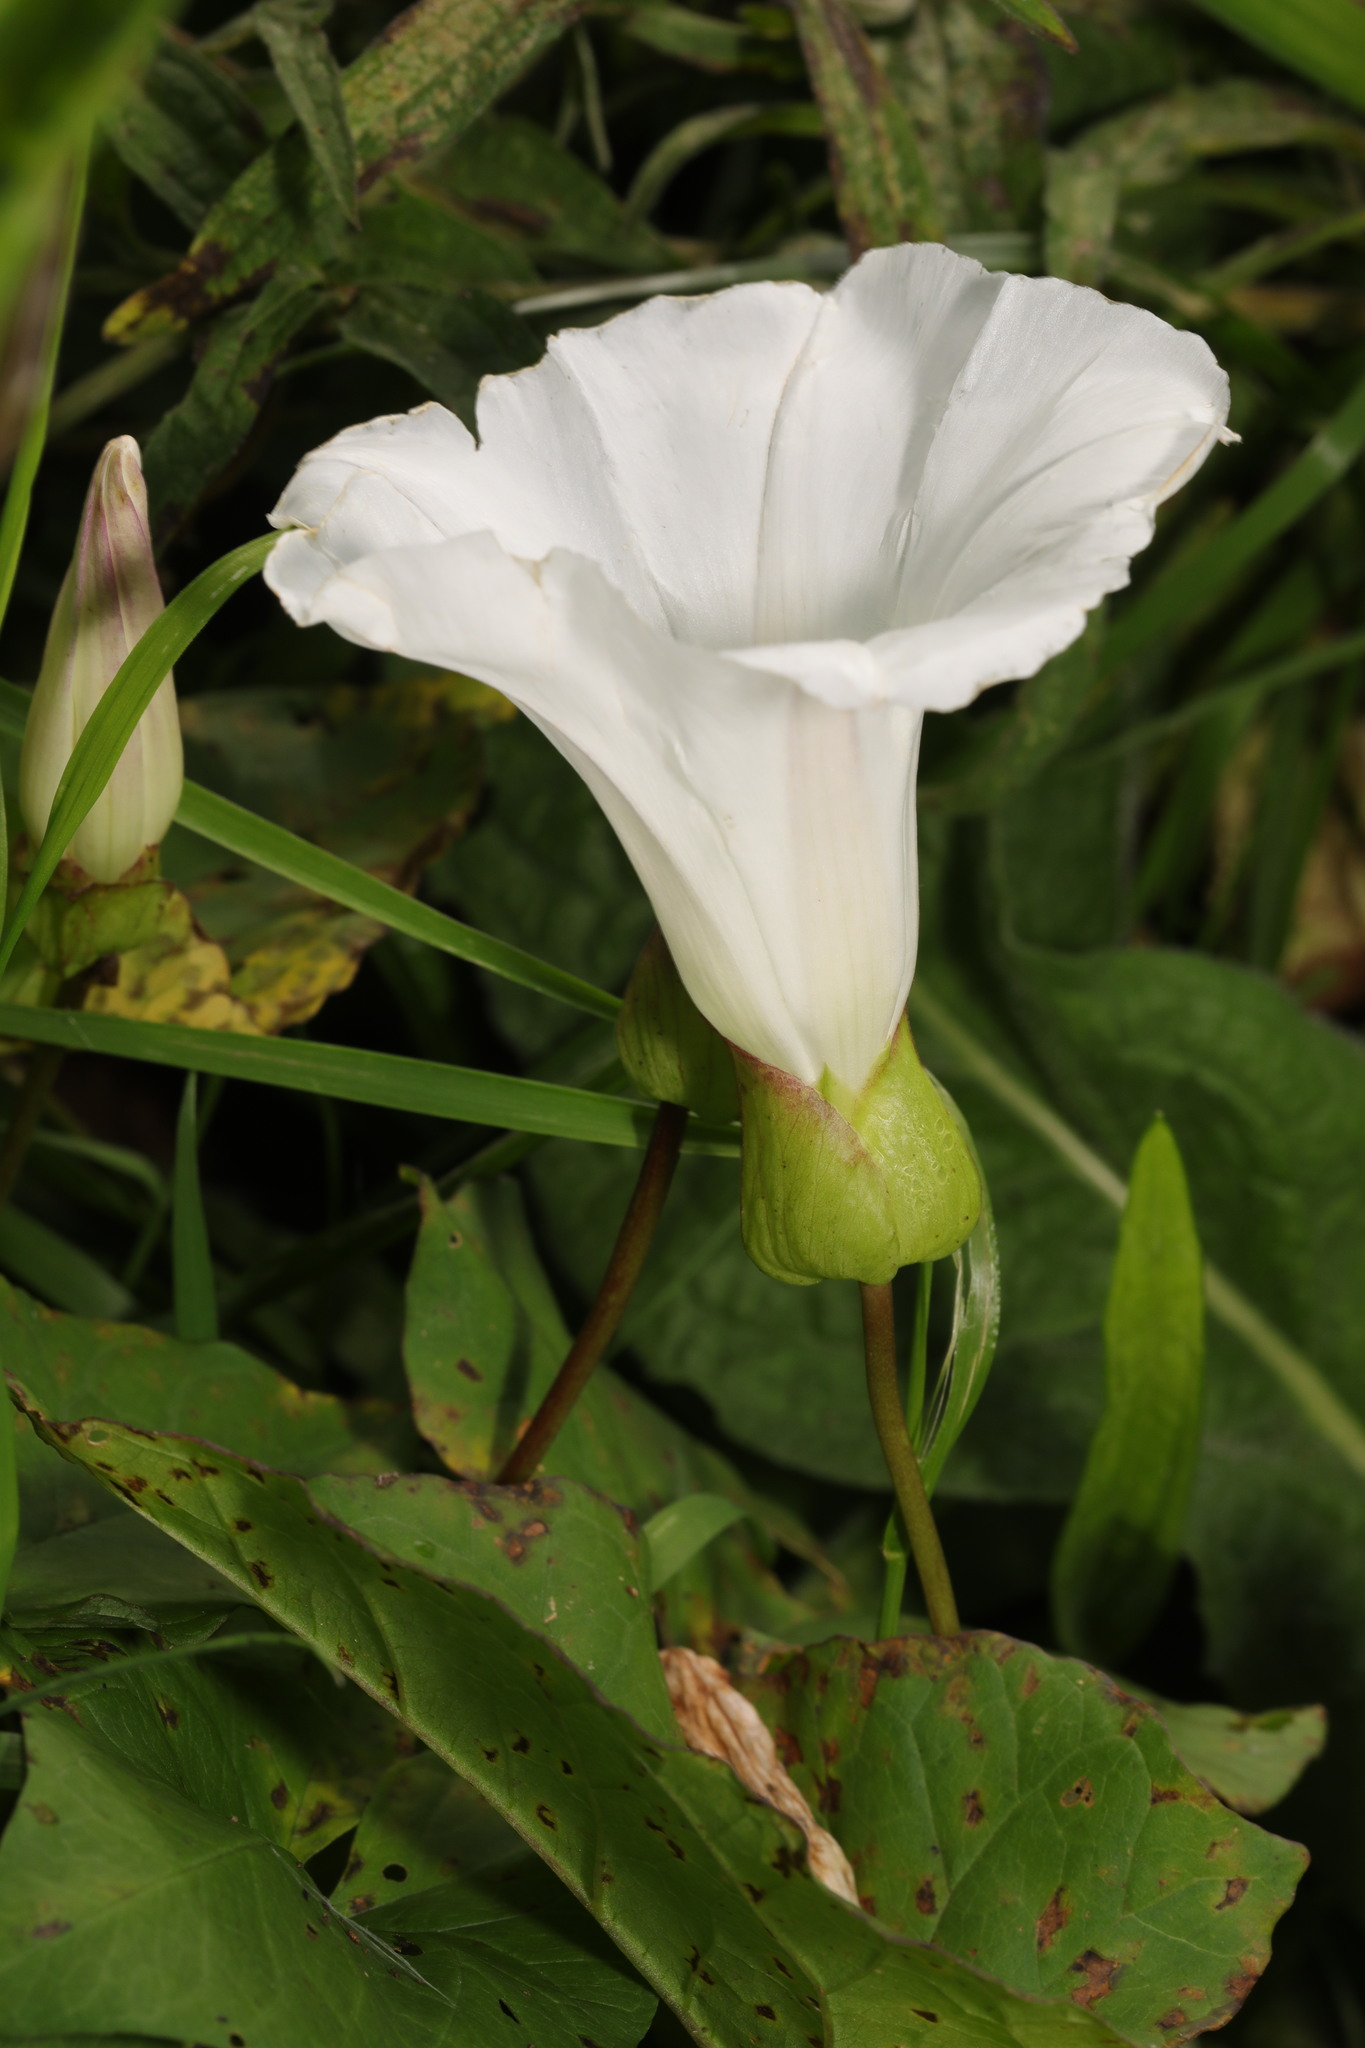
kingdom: Plantae
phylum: Tracheophyta
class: Magnoliopsida
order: Solanales
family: Convolvulaceae
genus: Calystegia
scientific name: Calystegia silvatica
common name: Large bindweed
